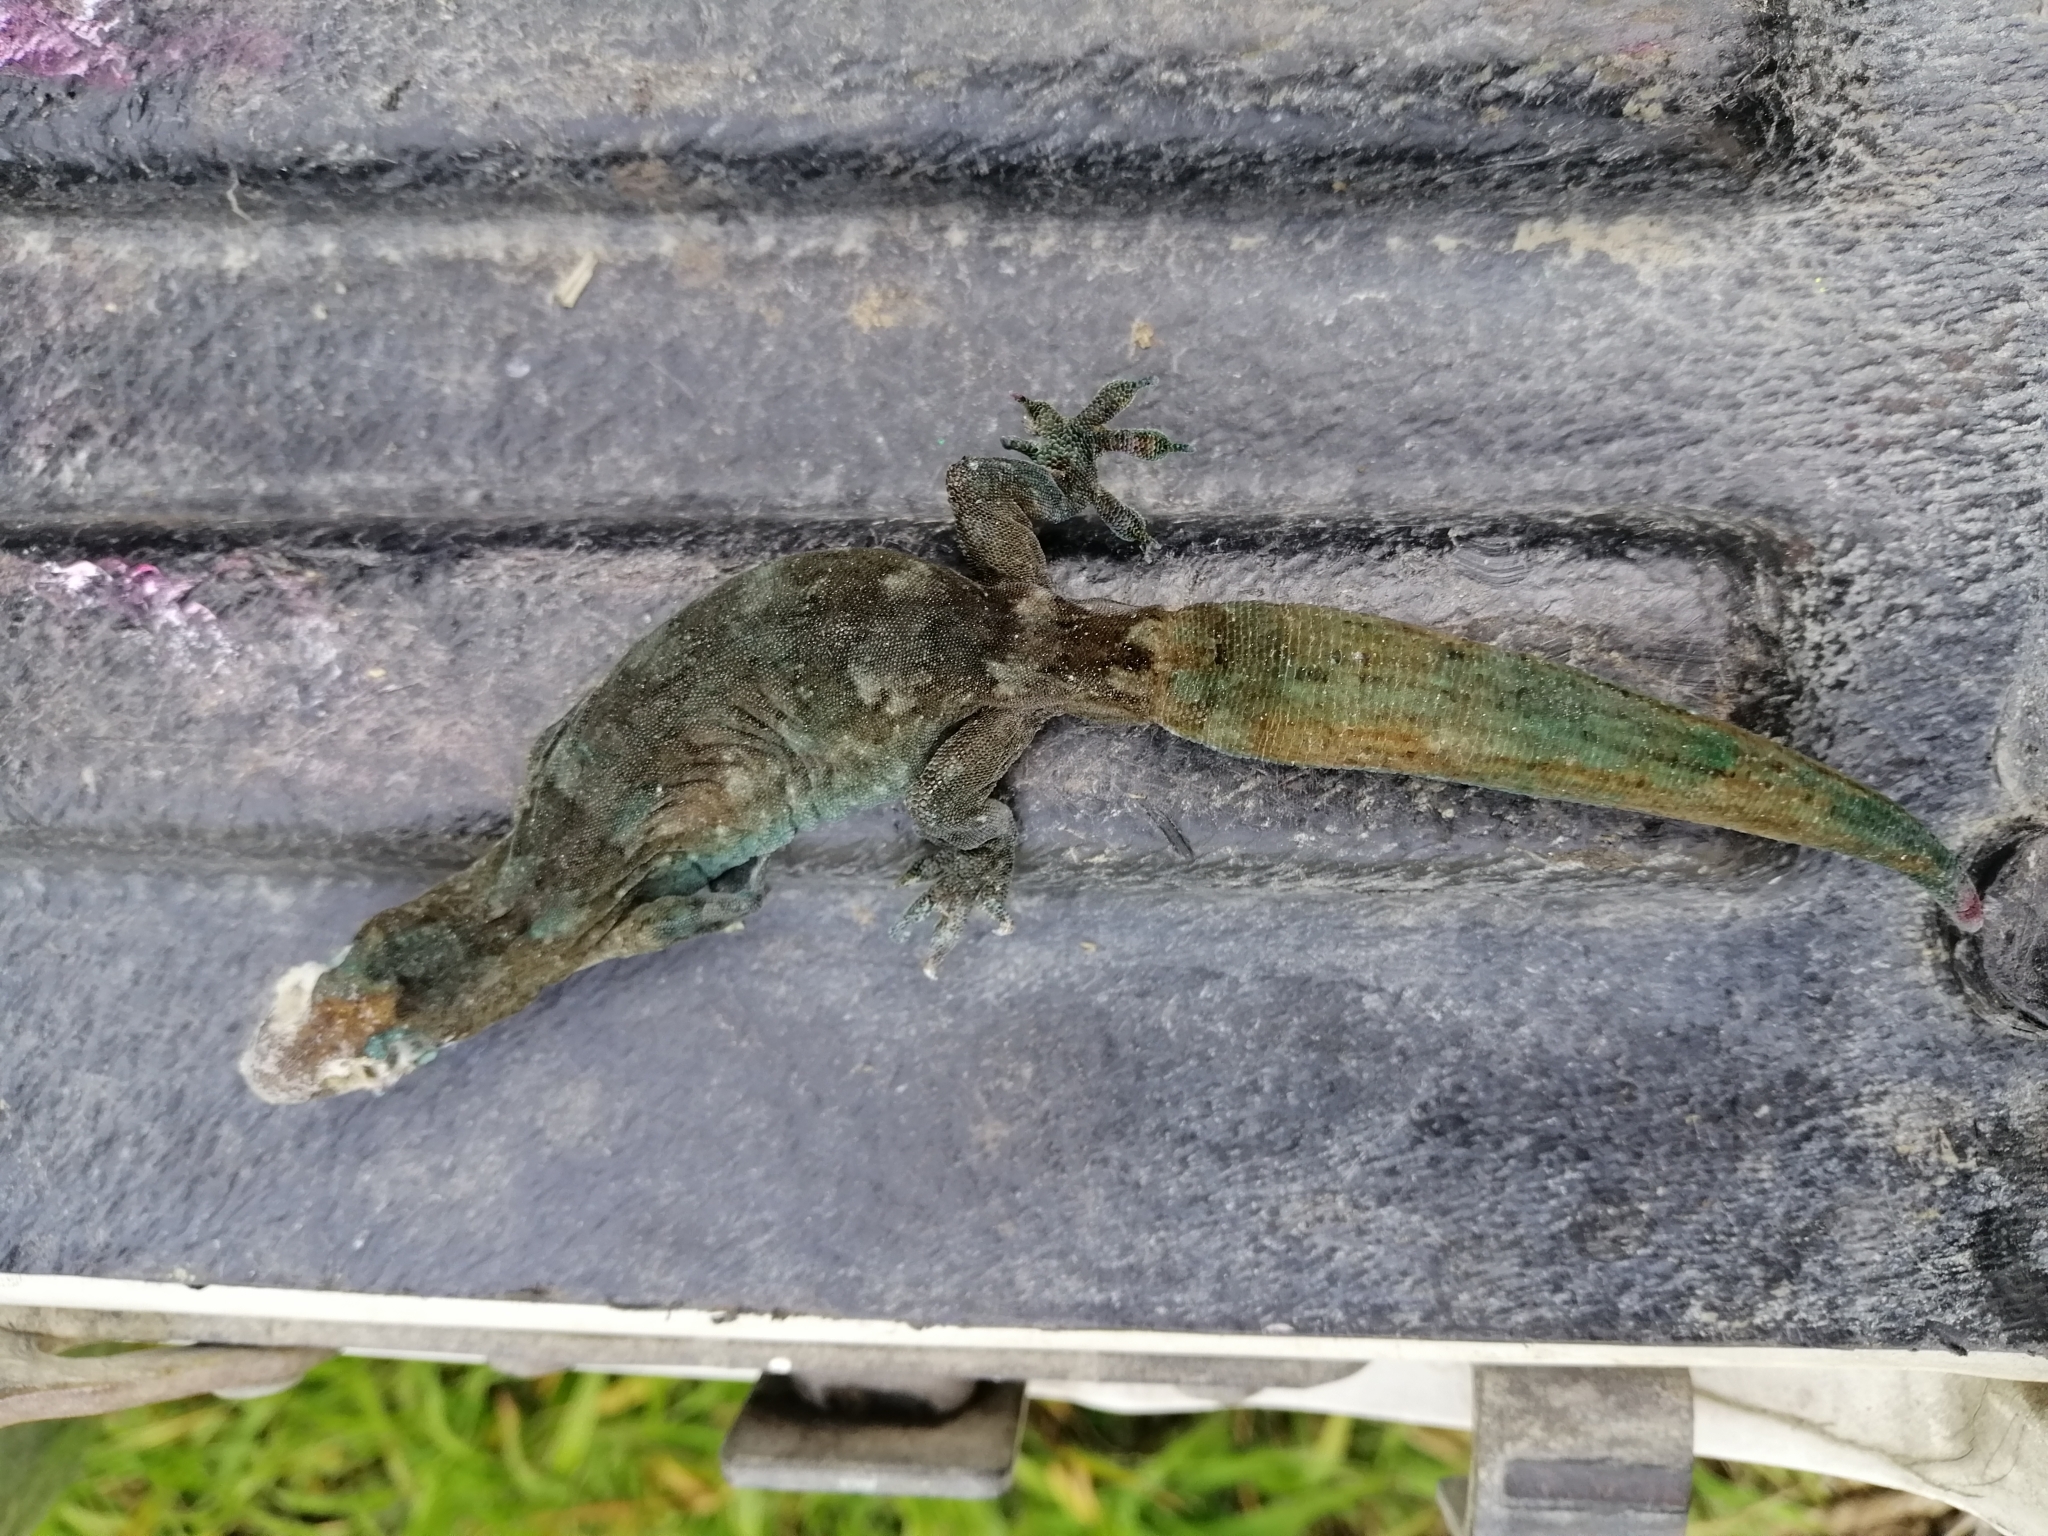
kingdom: Animalia
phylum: Chordata
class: Squamata
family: Diplodactylidae
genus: Woodworthia
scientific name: Woodworthia maculata
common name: Raukawa gecko
